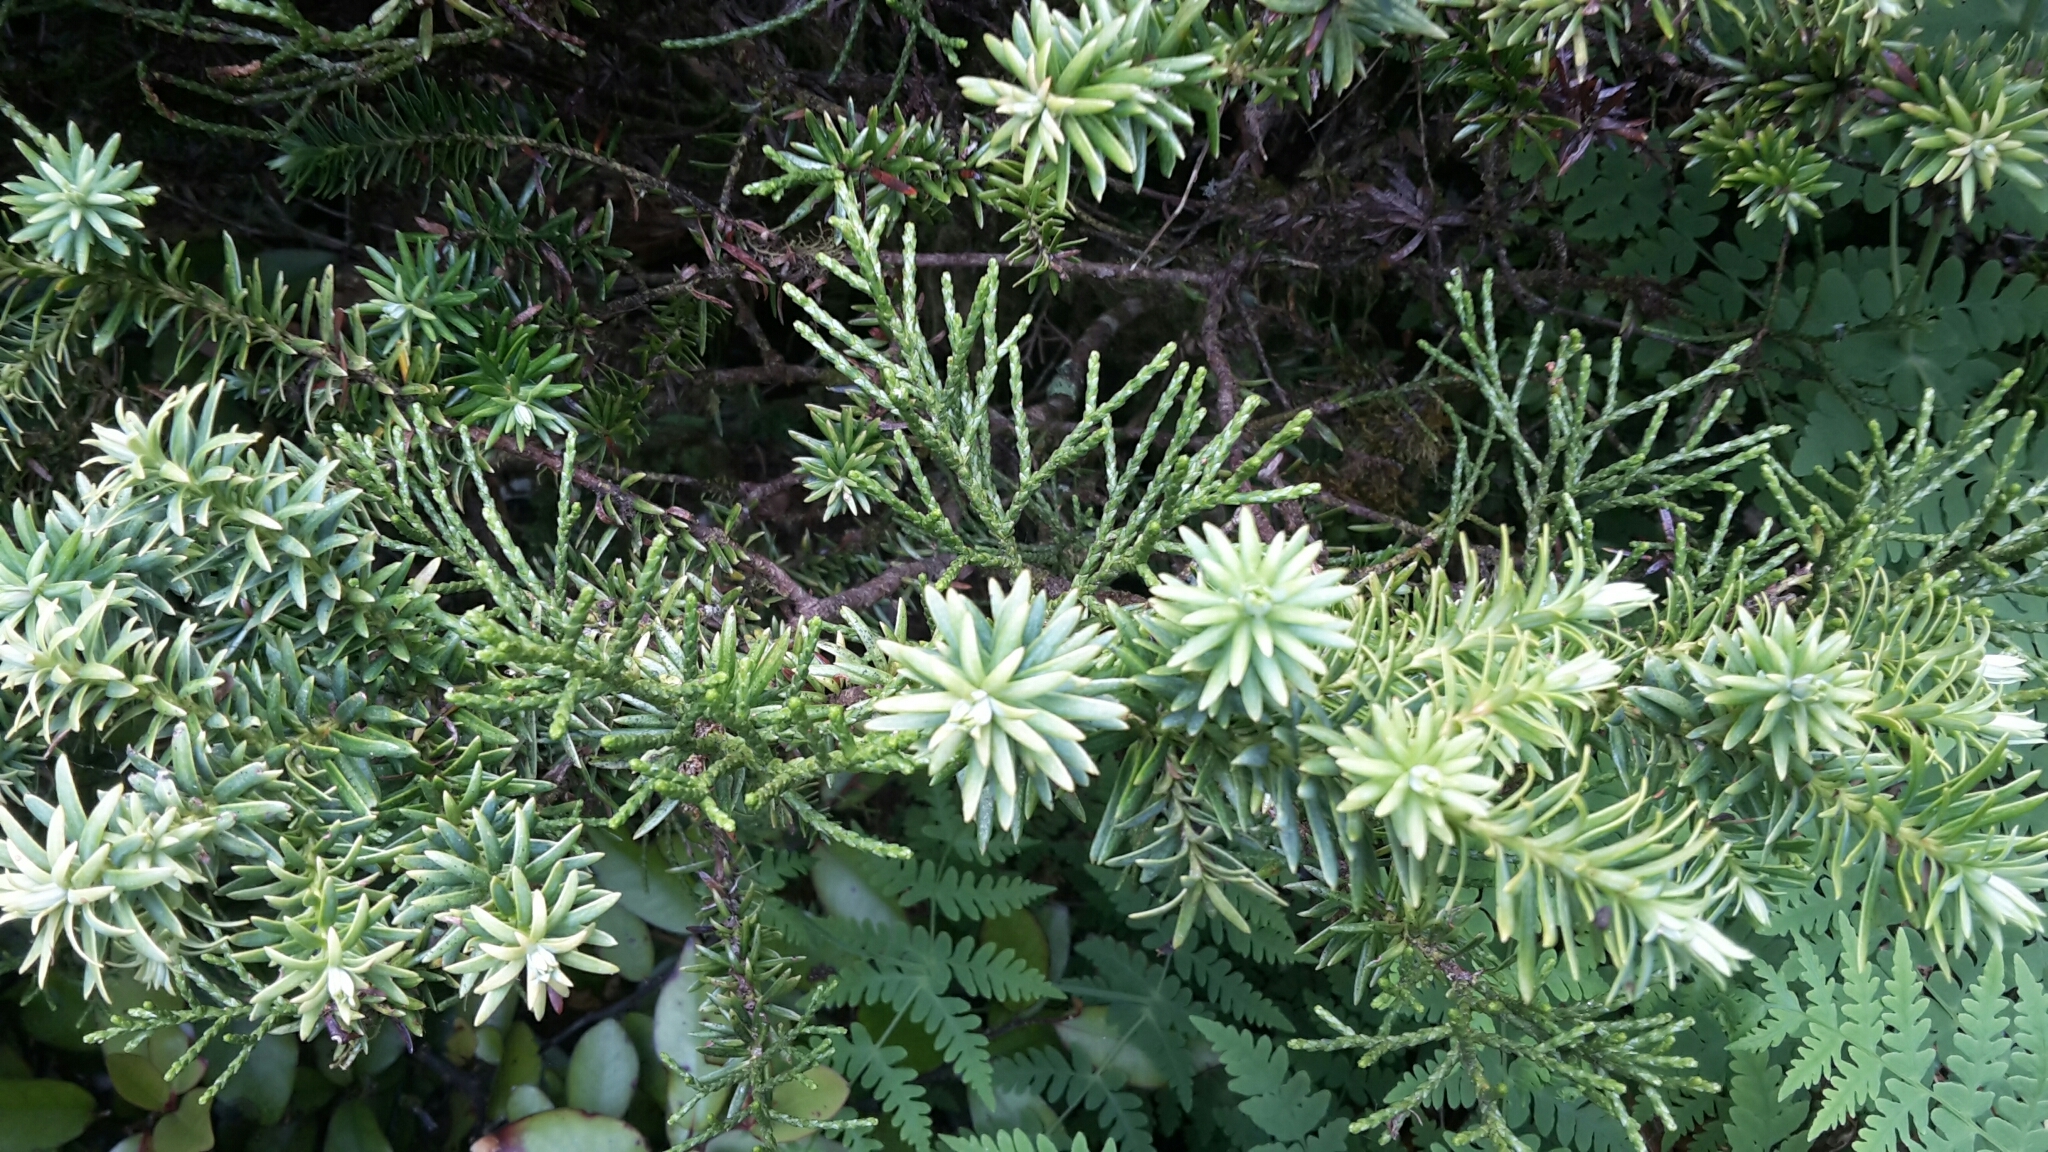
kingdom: Plantae
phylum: Tracheophyta
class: Pinopsida
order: Pinales
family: Podocarpaceae
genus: Halocarpus
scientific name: Halocarpus biformis
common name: Alpine tarwood
